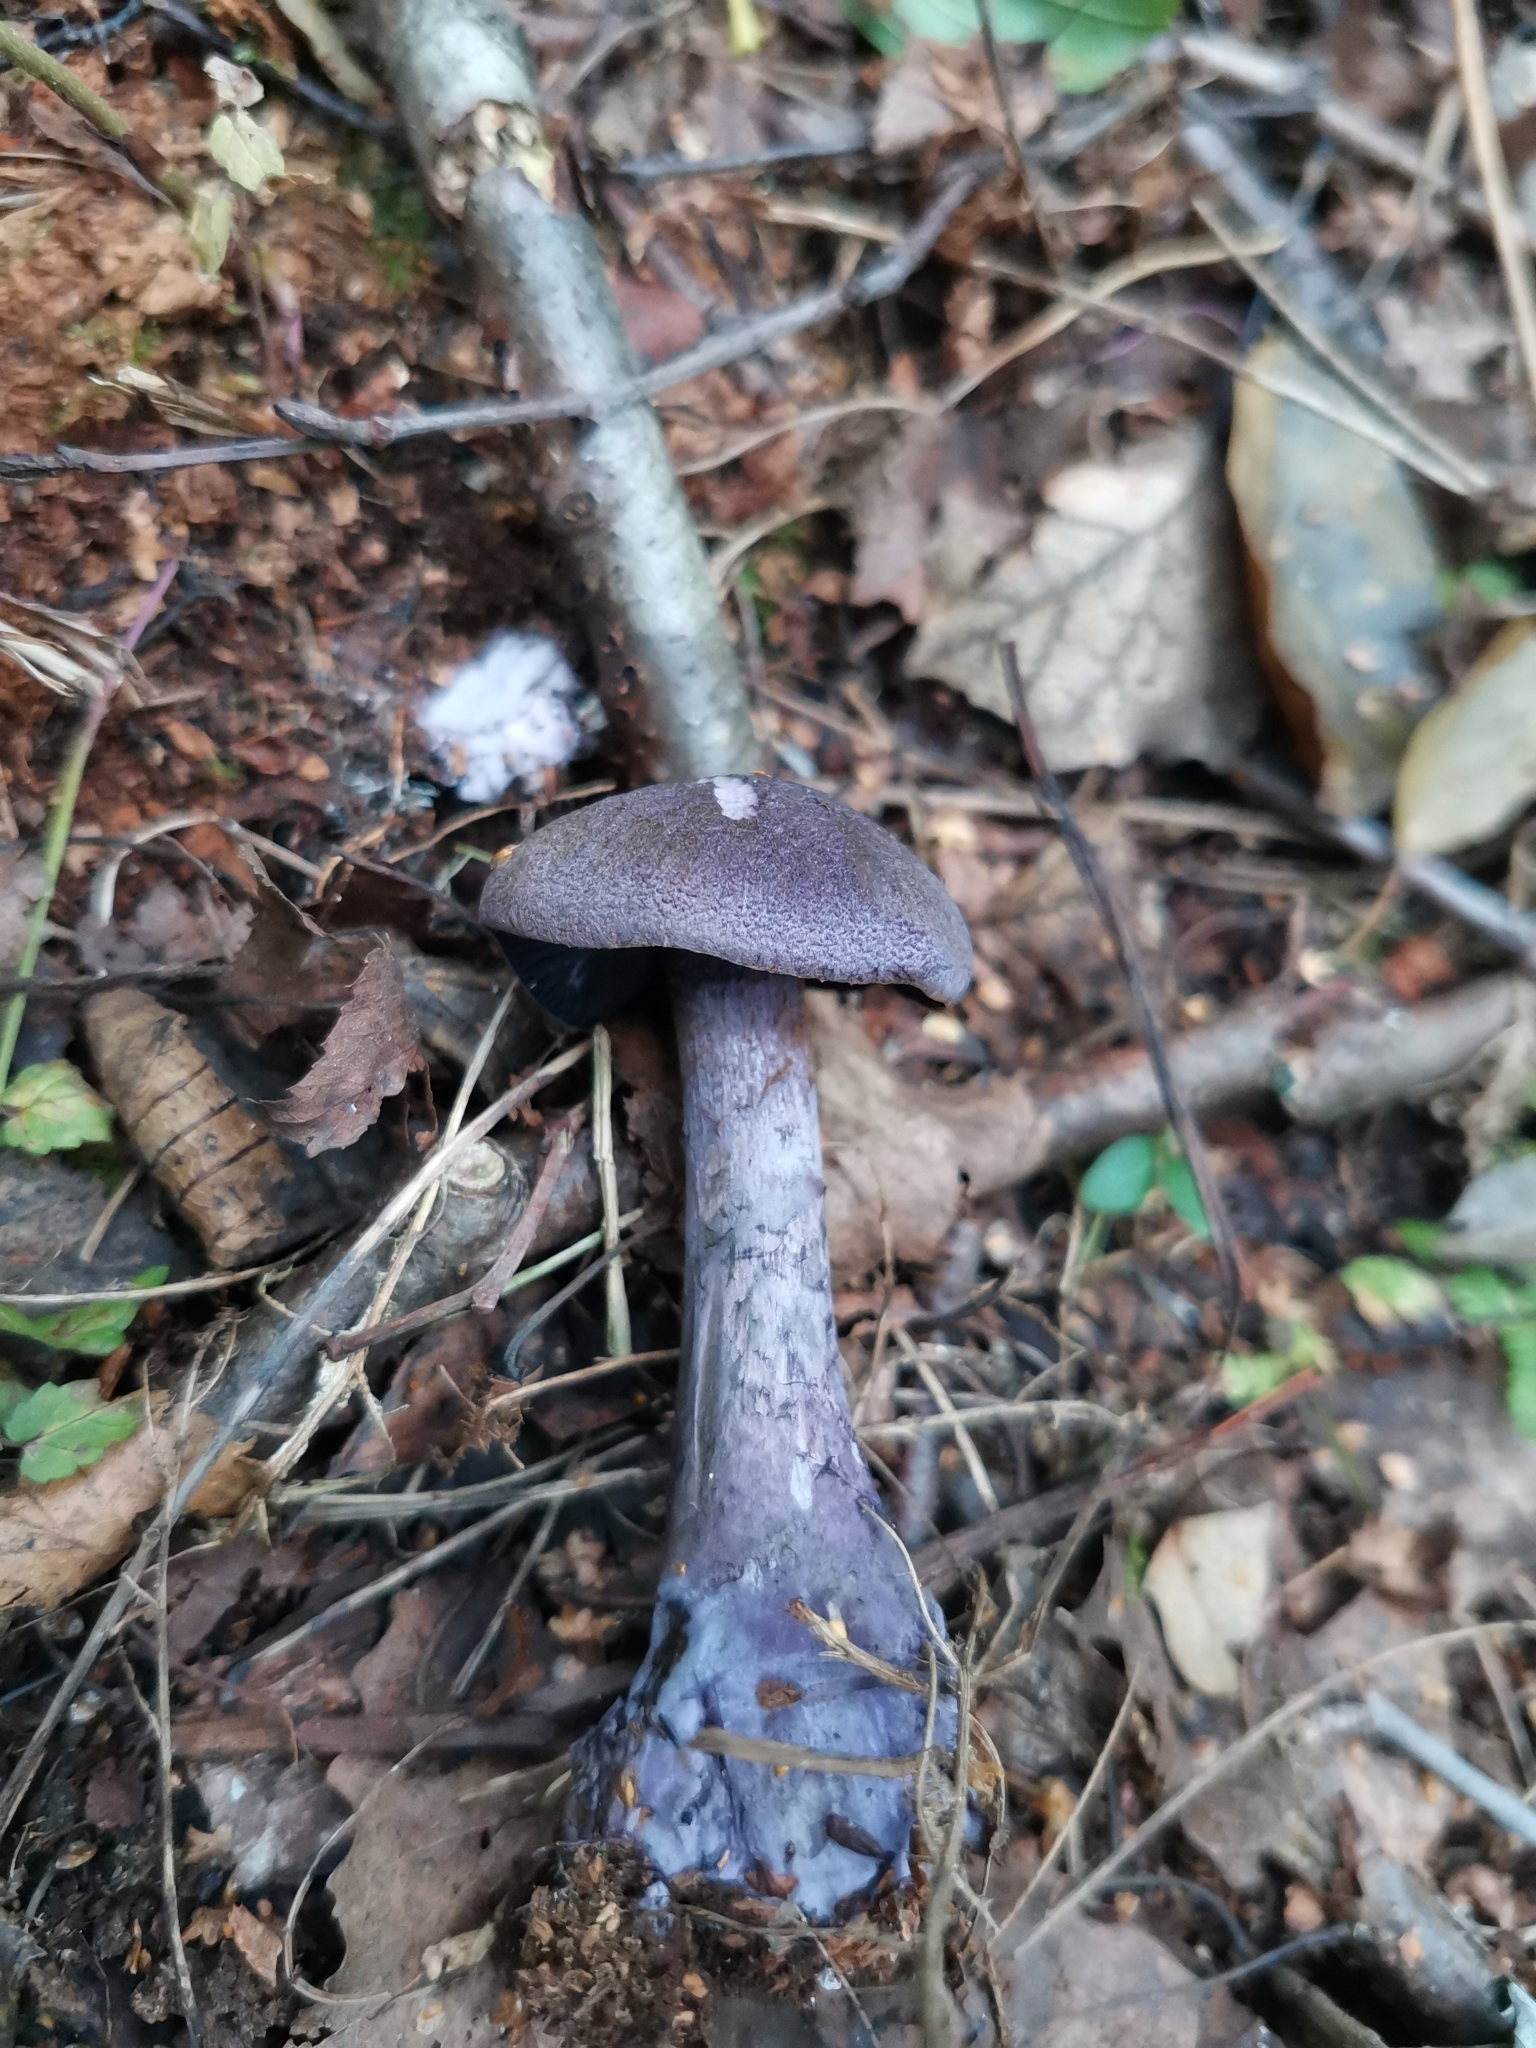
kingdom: Fungi
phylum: Basidiomycota
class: Agaricomycetes
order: Agaricales
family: Cortinariaceae
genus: Cortinarius
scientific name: Cortinarius violaceus
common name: Violet webcap
